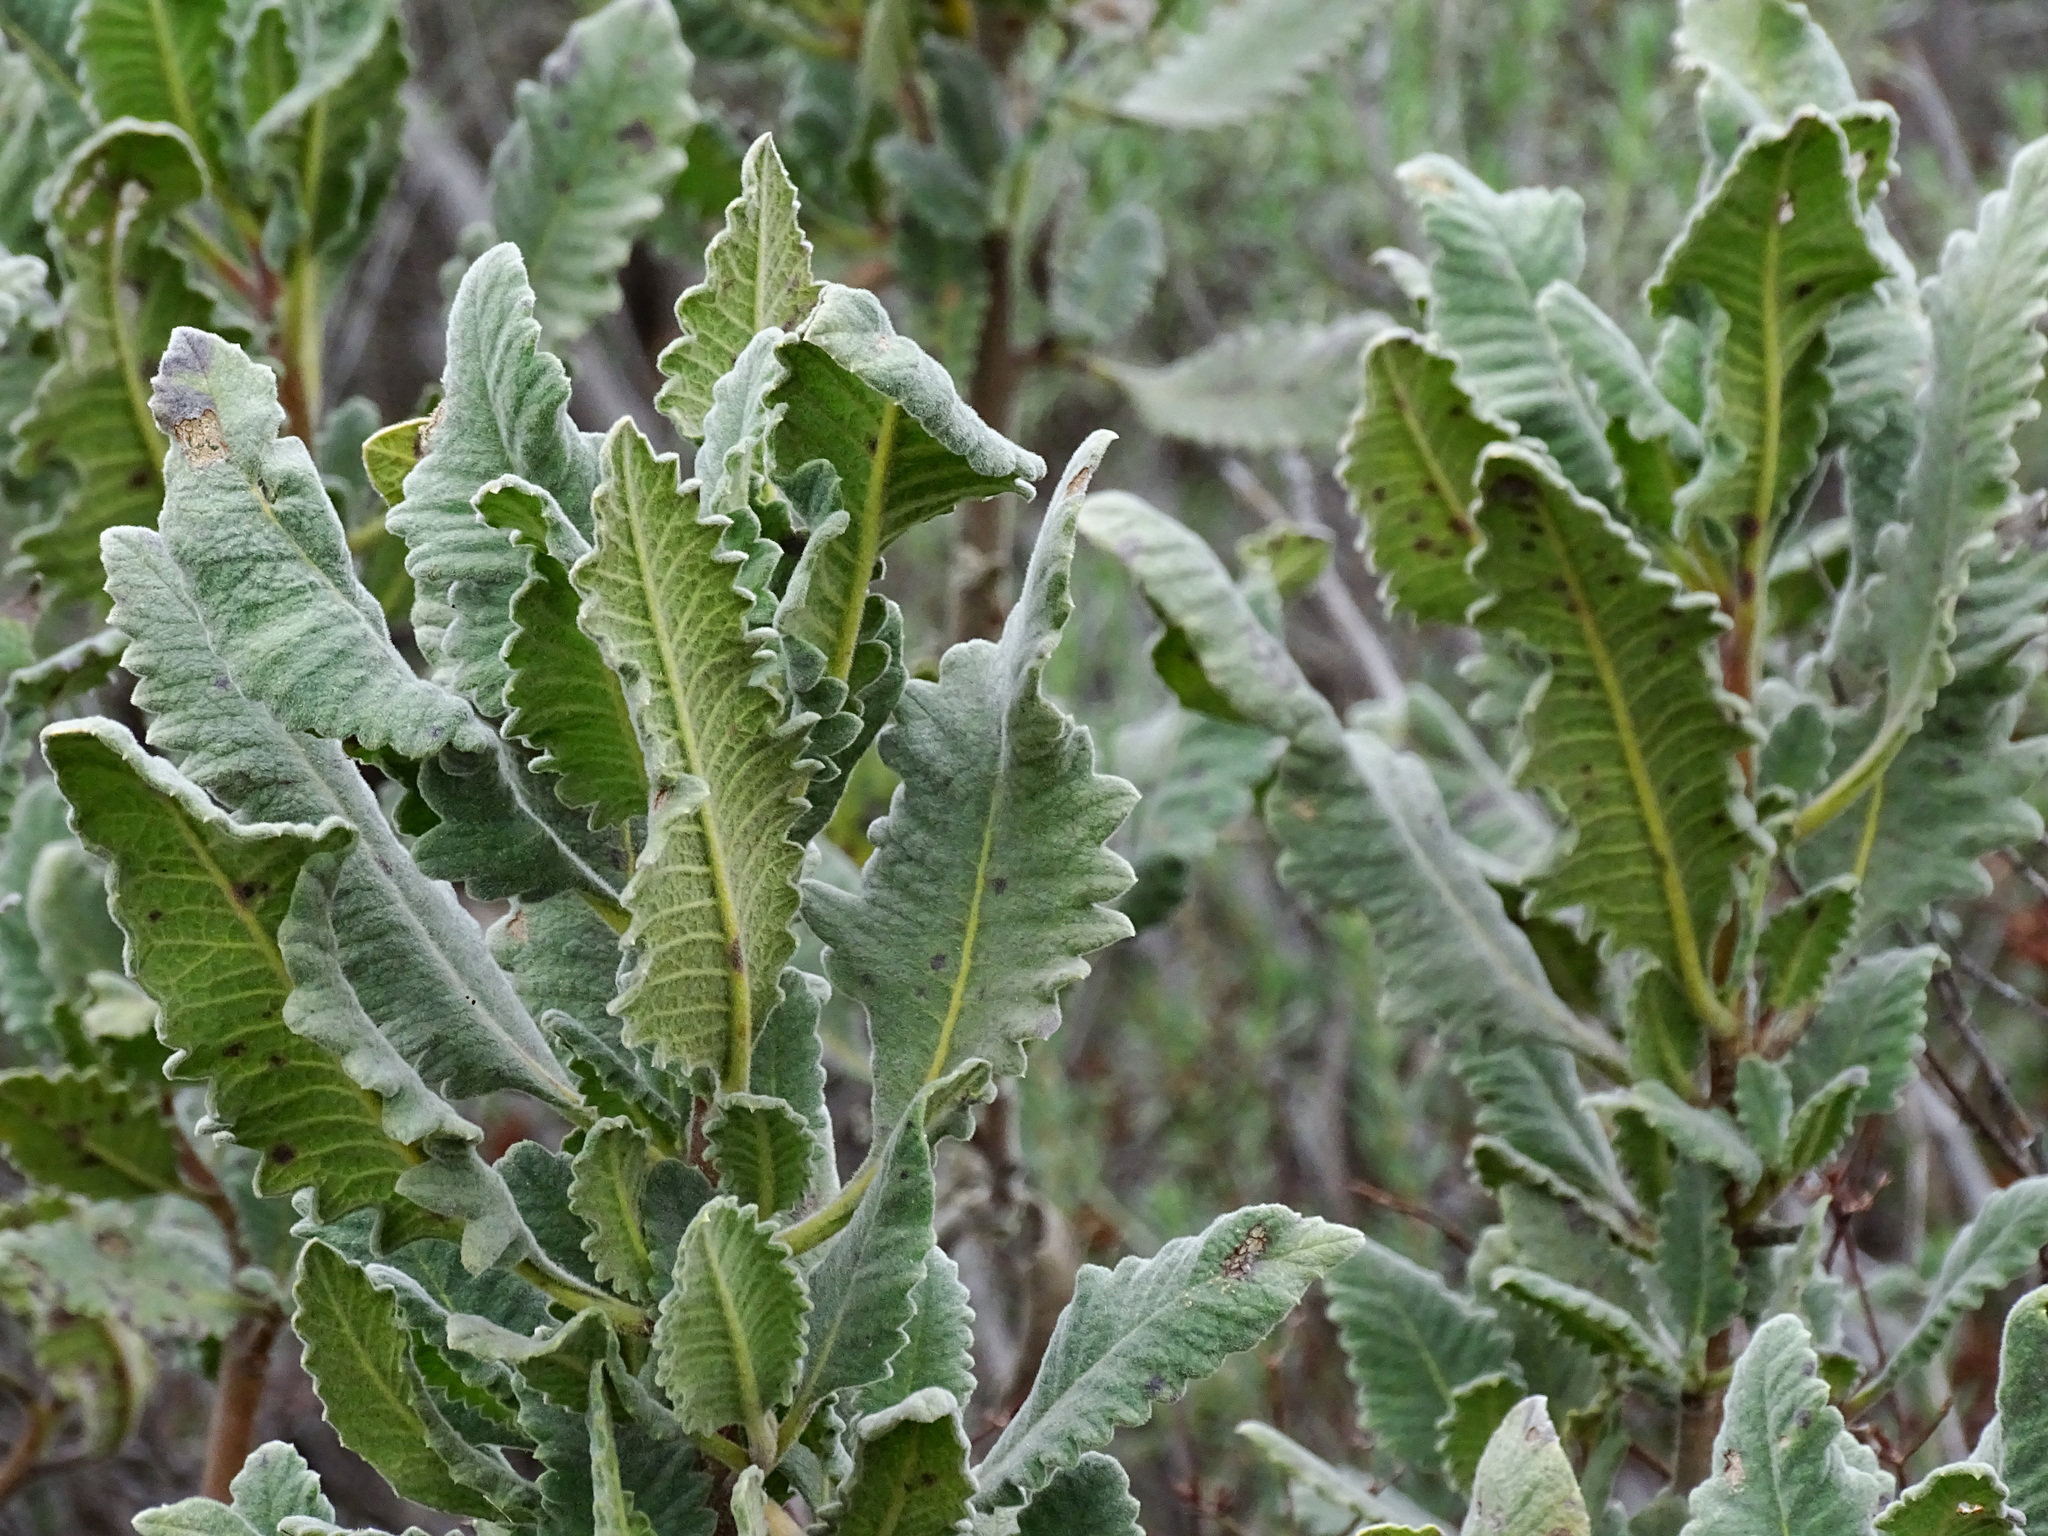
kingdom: Plantae
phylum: Tracheophyta
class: Magnoliopsida
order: Boraginales
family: Namaceae
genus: Eriodictyon
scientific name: Eriodictyon crassifolium
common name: Thick-leaf yerba-santa
